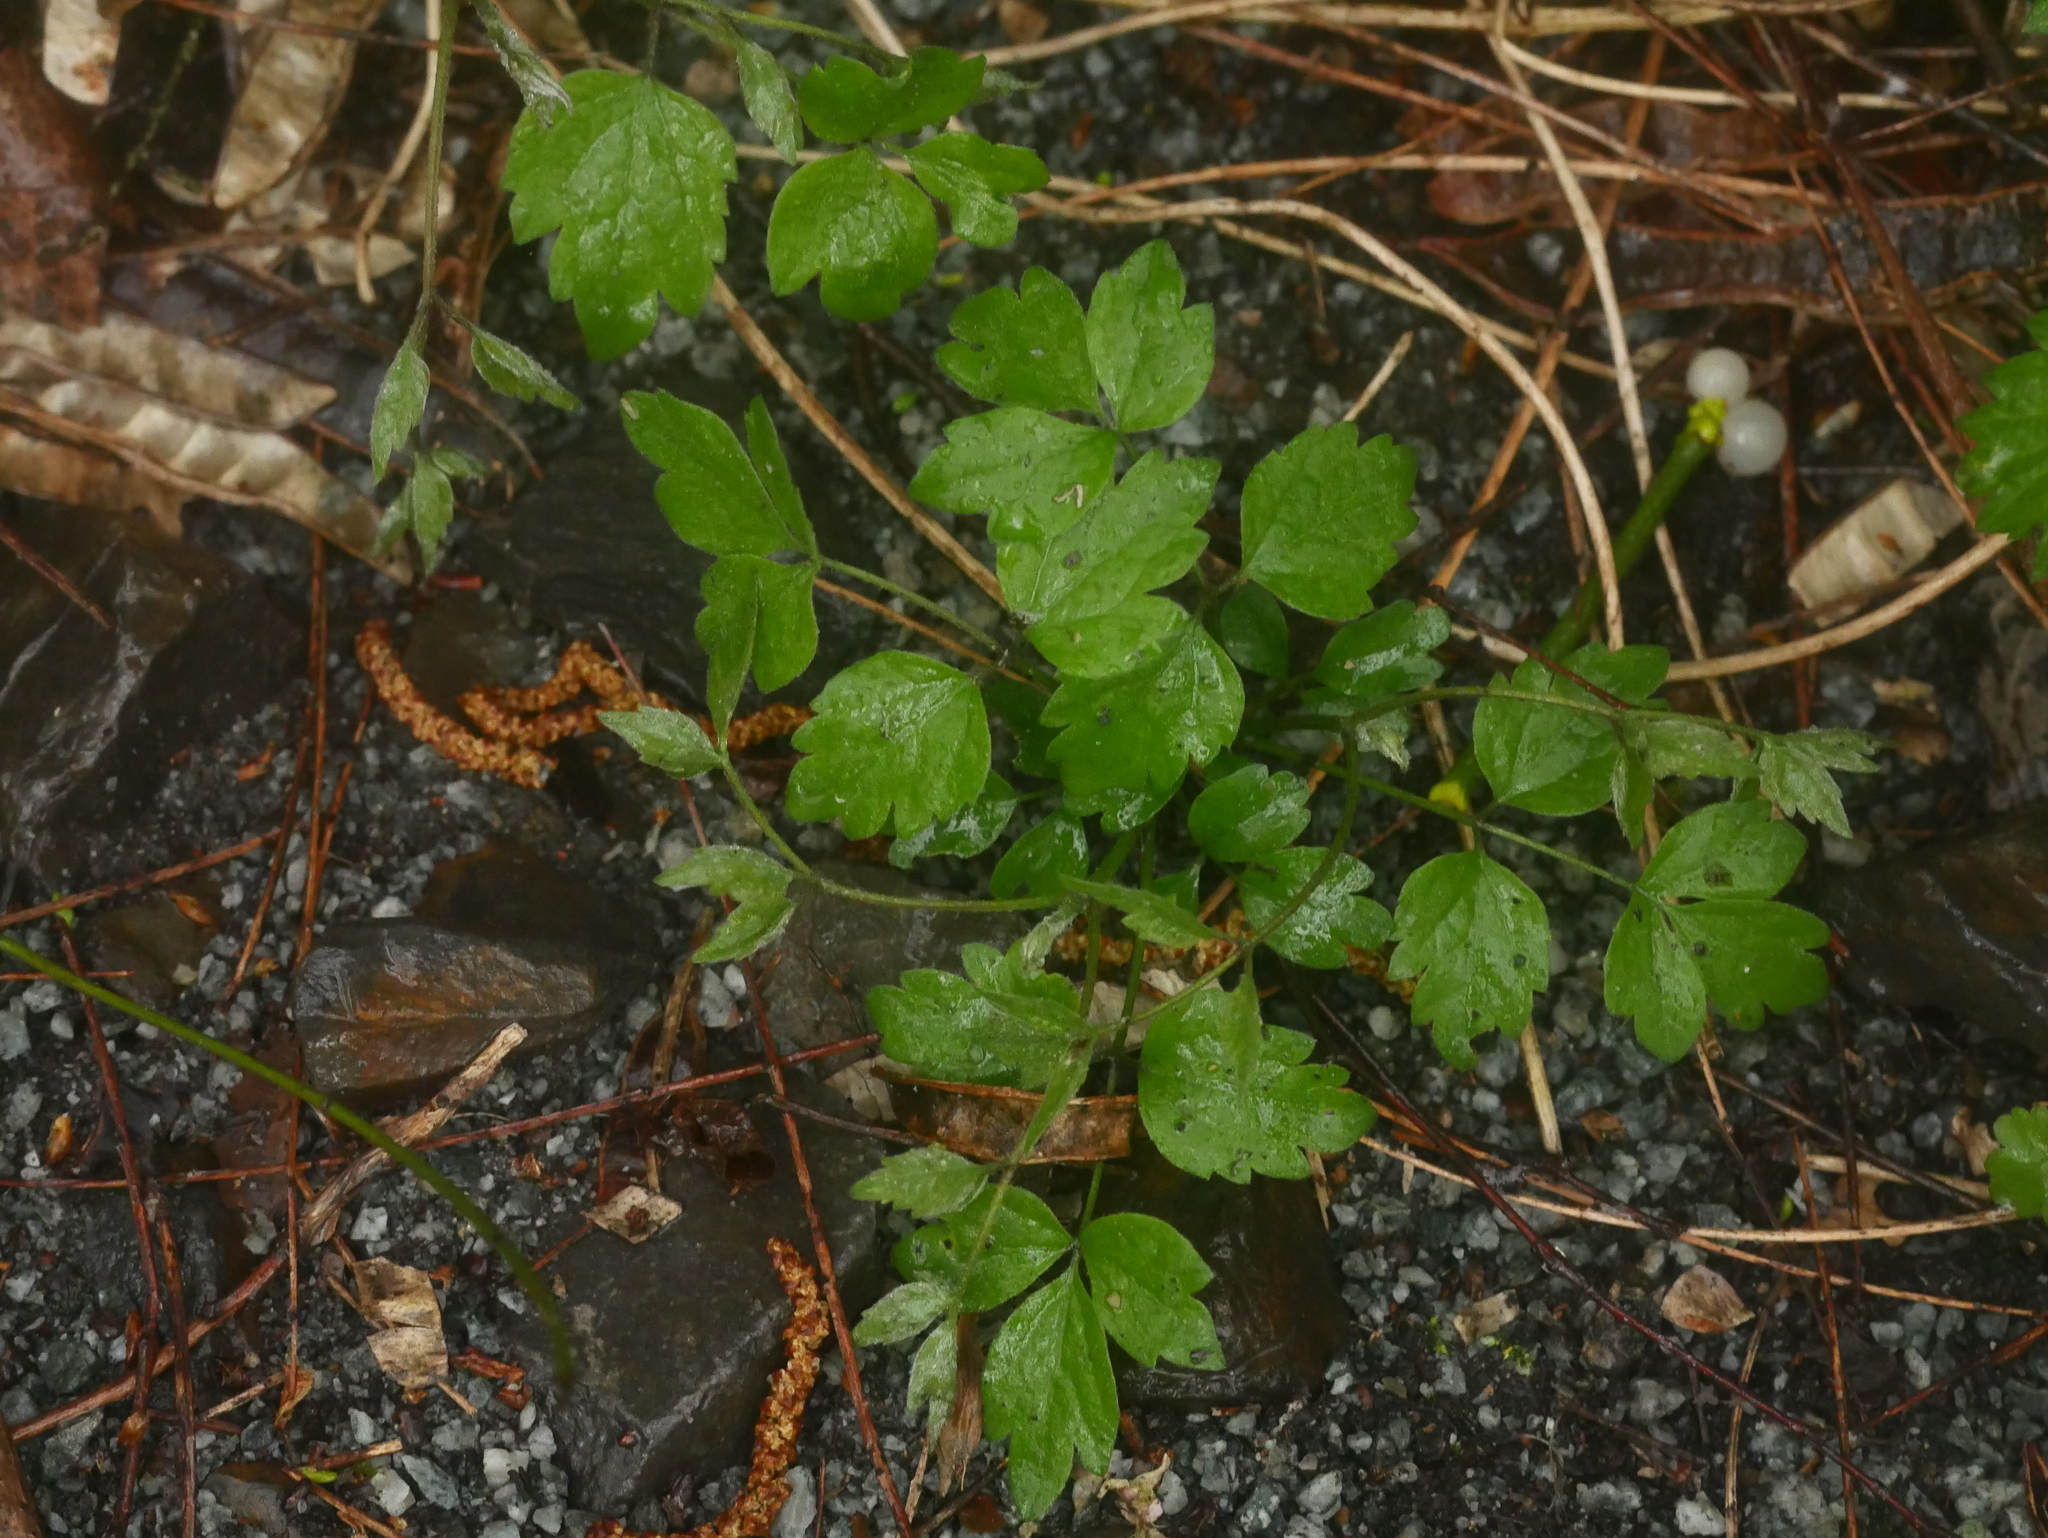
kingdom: Plantae
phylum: Tracheophyta
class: Magnoliopsida
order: Ranunculales
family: Ranunculaceae
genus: Clematis
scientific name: Clematis vitalba
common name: Evergreen clematis
